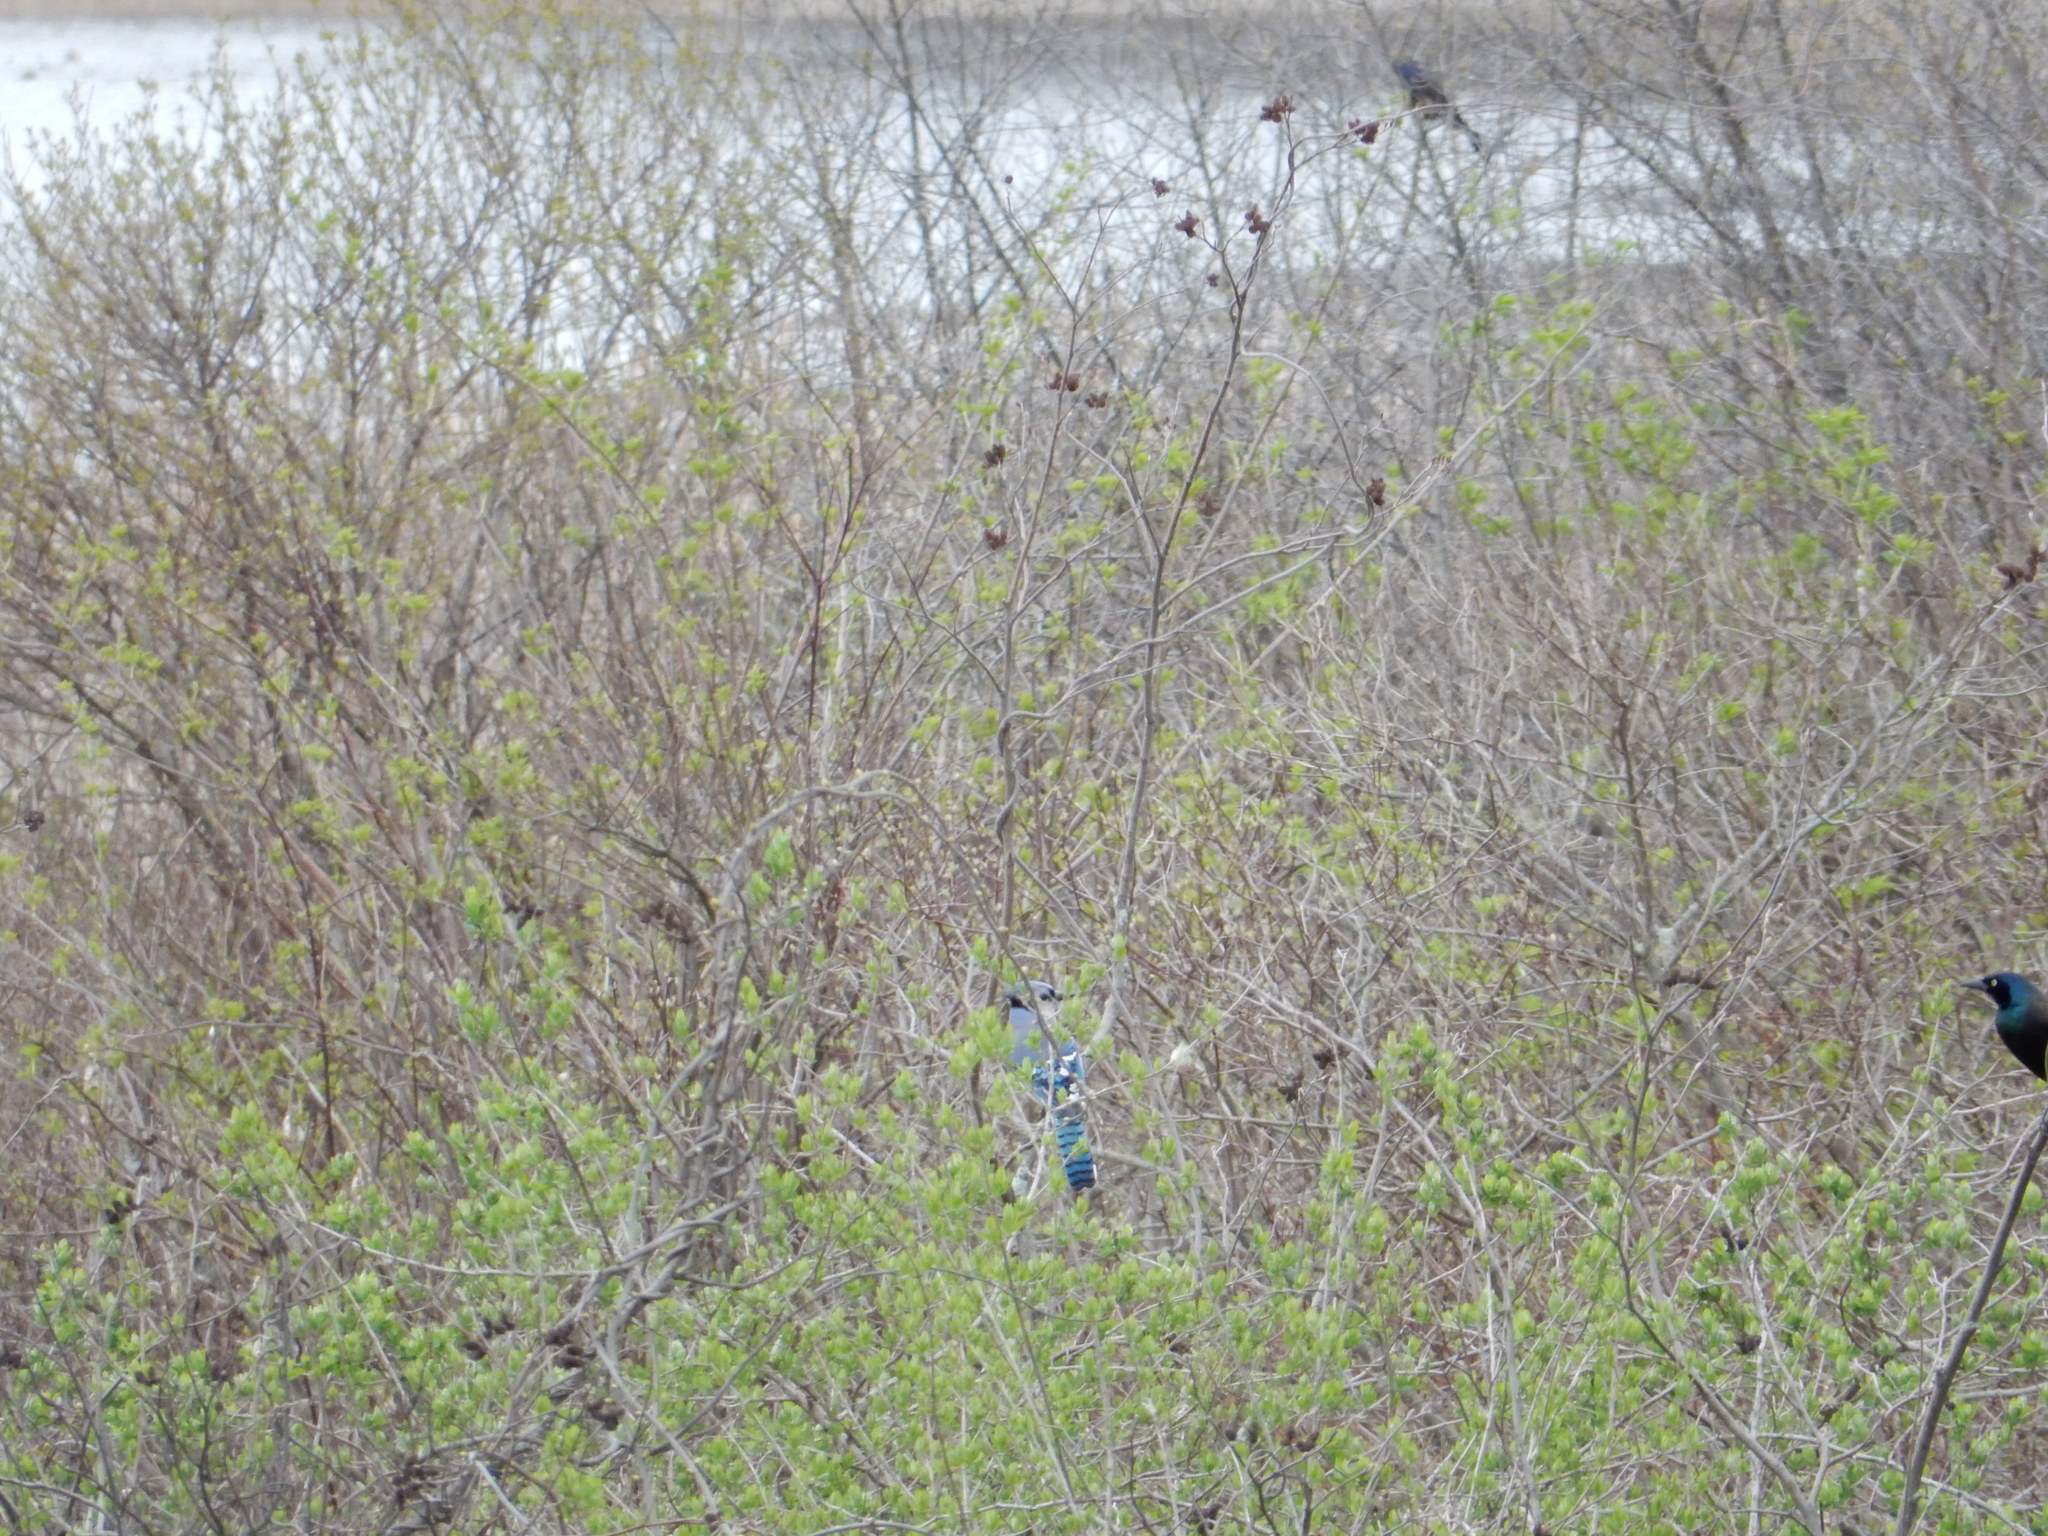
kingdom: Animalia
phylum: Chordata
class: Aves
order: Passeriformes
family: Corvidae
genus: Cyanocitta
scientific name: Cyanocitta cristata
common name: Blue jay
